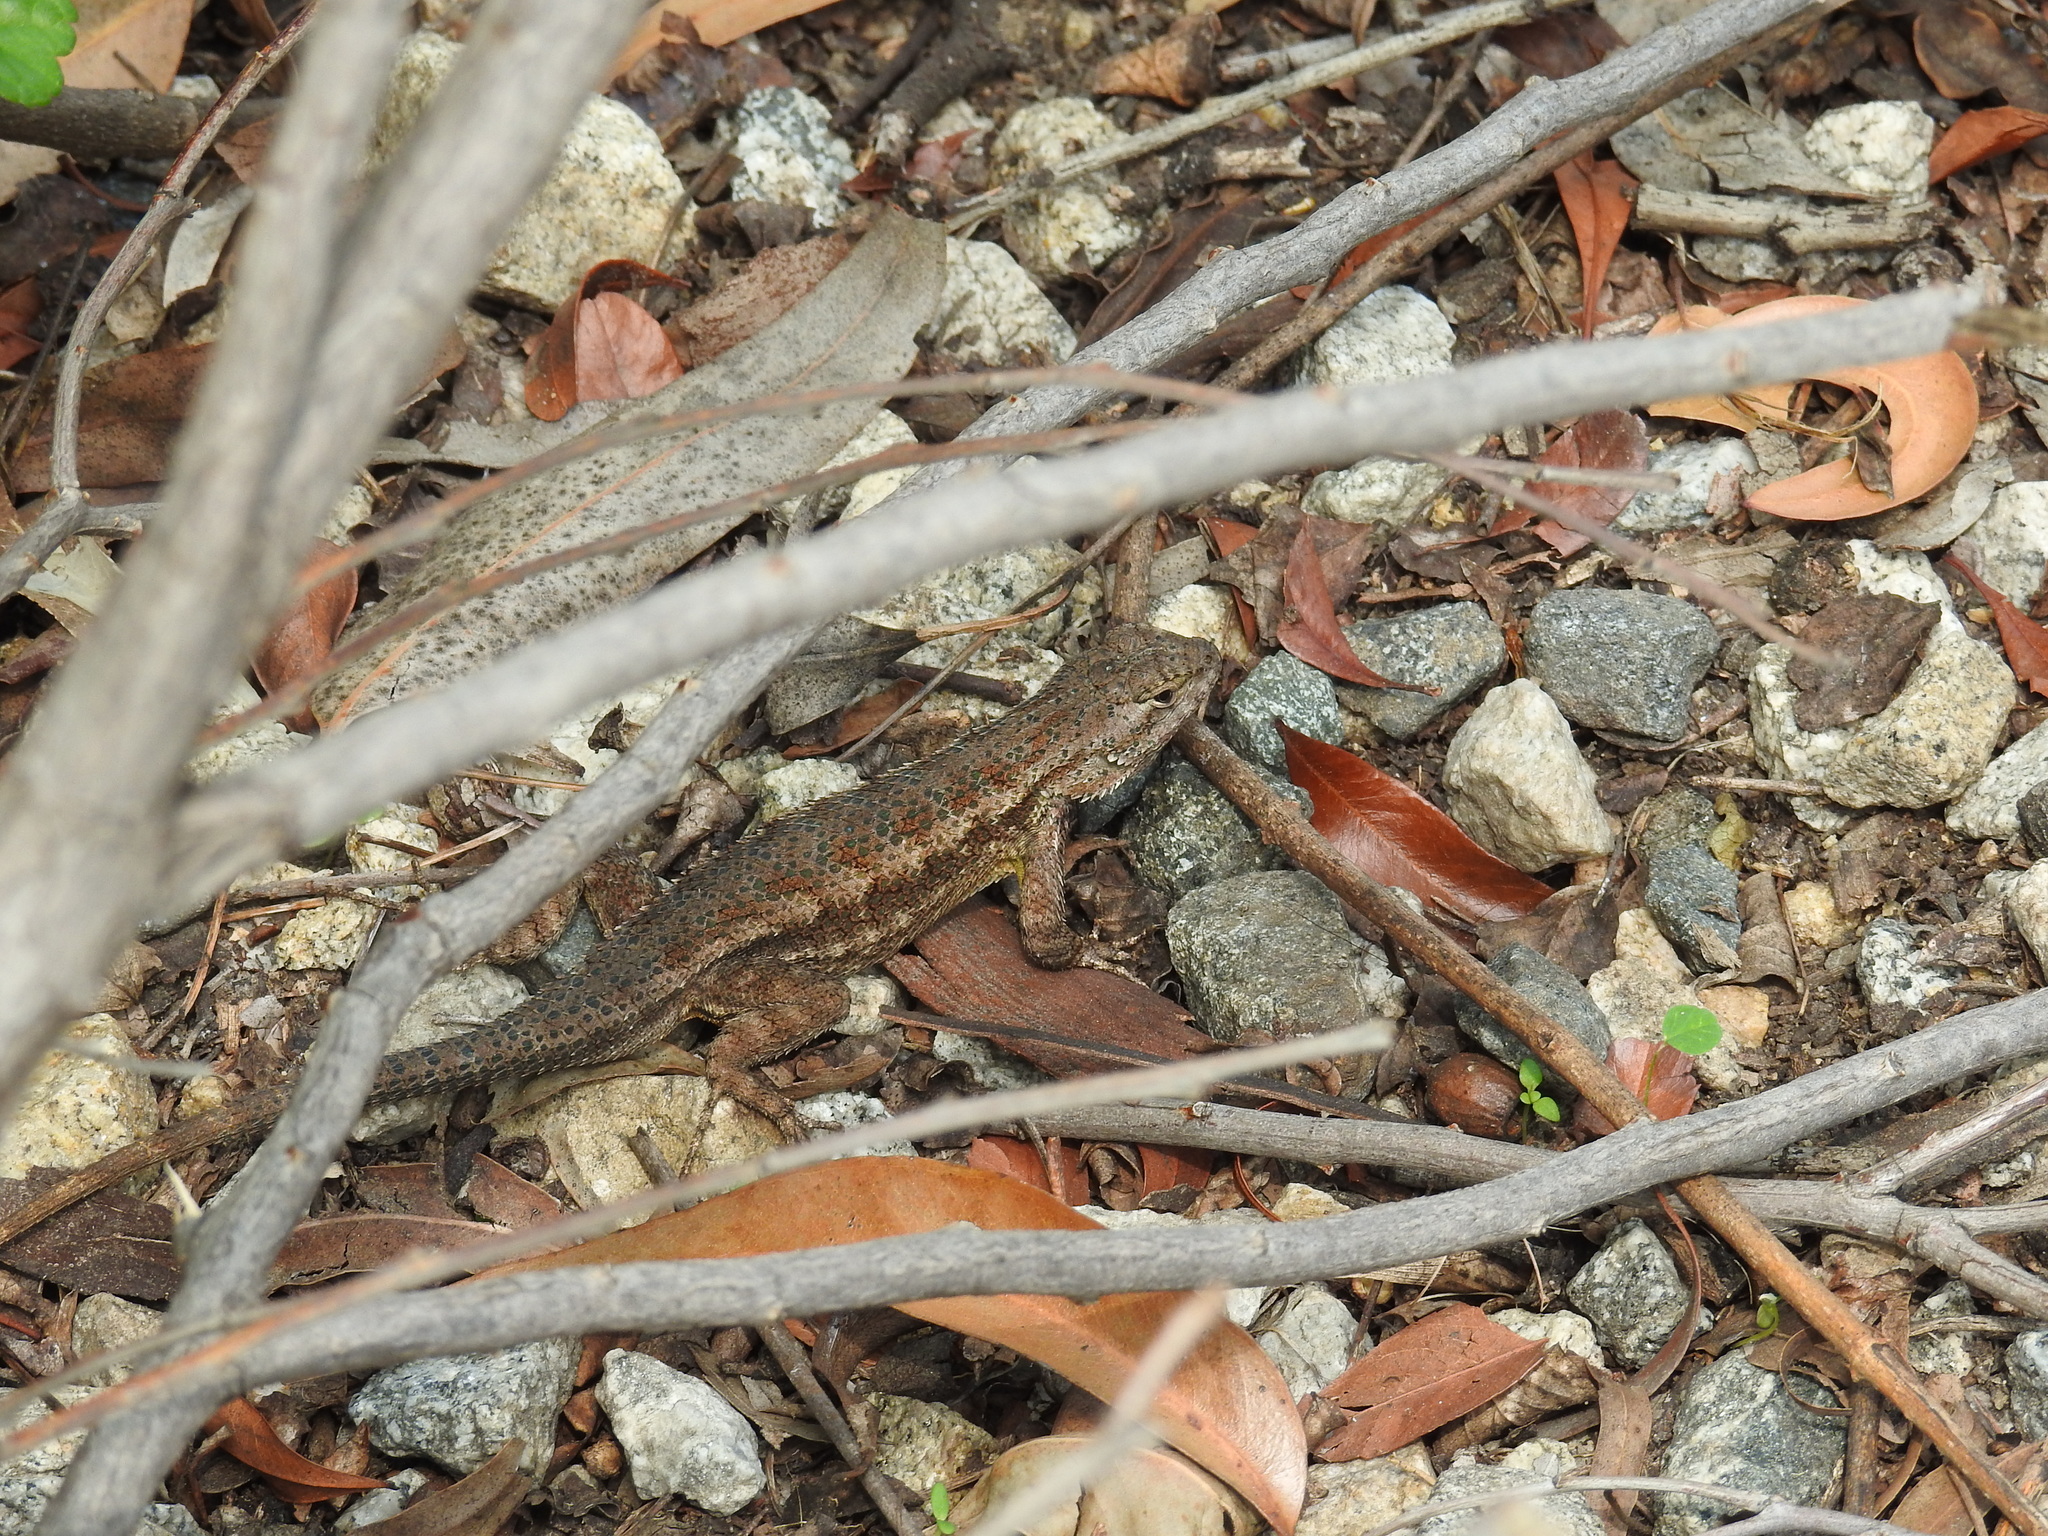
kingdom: Animalia
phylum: Chordata
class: Squamata
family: Phrynosomatidae
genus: Sceloporus
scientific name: Sceloporus occidentalis
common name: Western fence lizard
